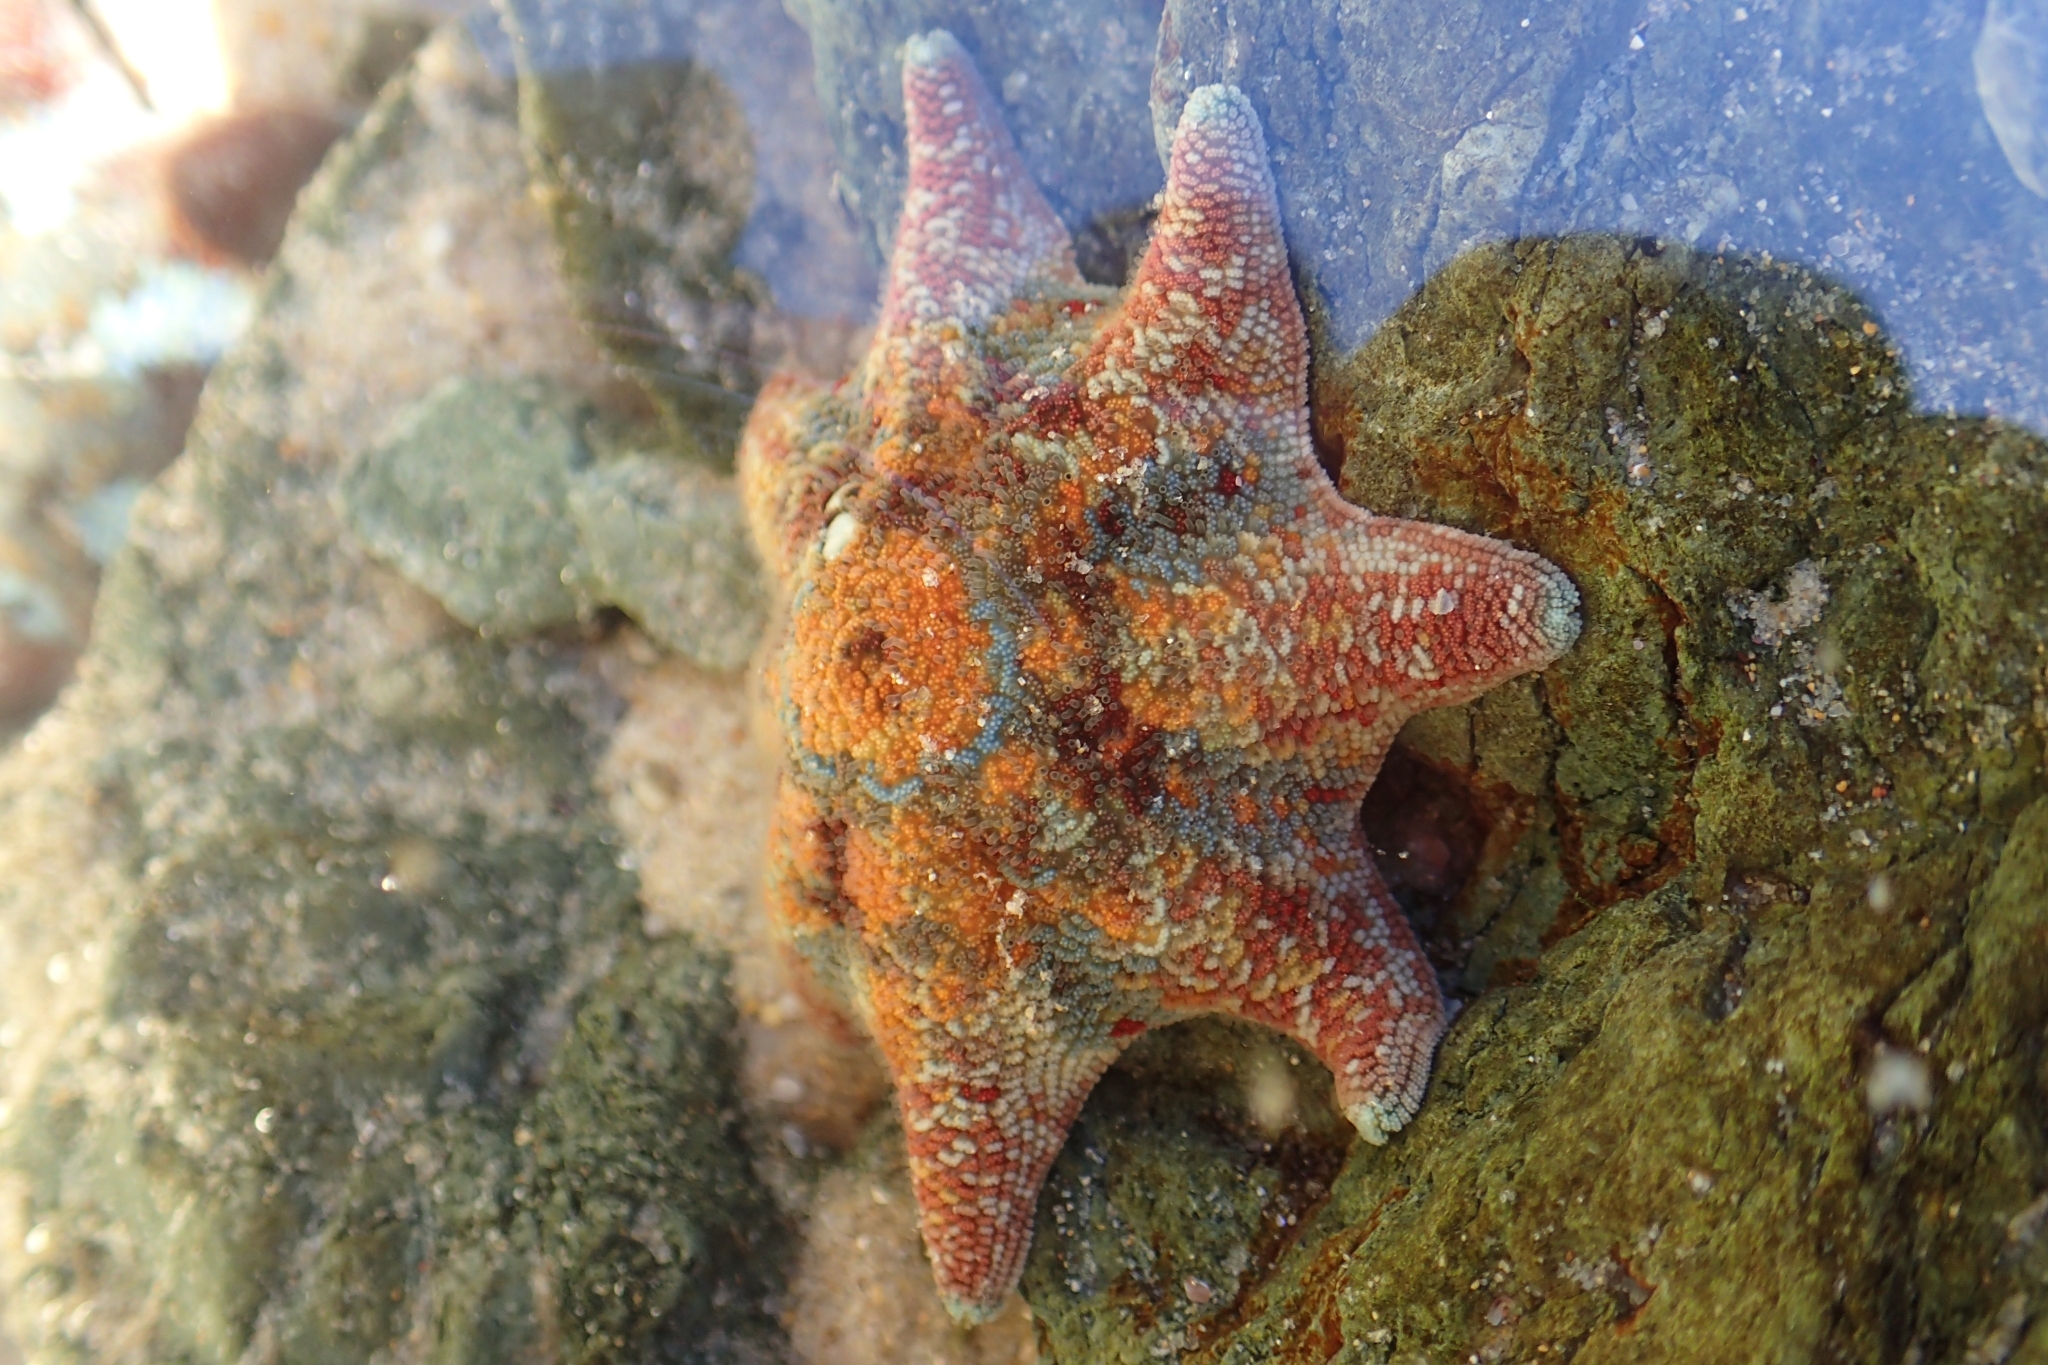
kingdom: Animalia
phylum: Echinodermata
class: Asteroidea
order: Valvatida
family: Asterinidae
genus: Meridiastra
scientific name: Meridiastra calcar
